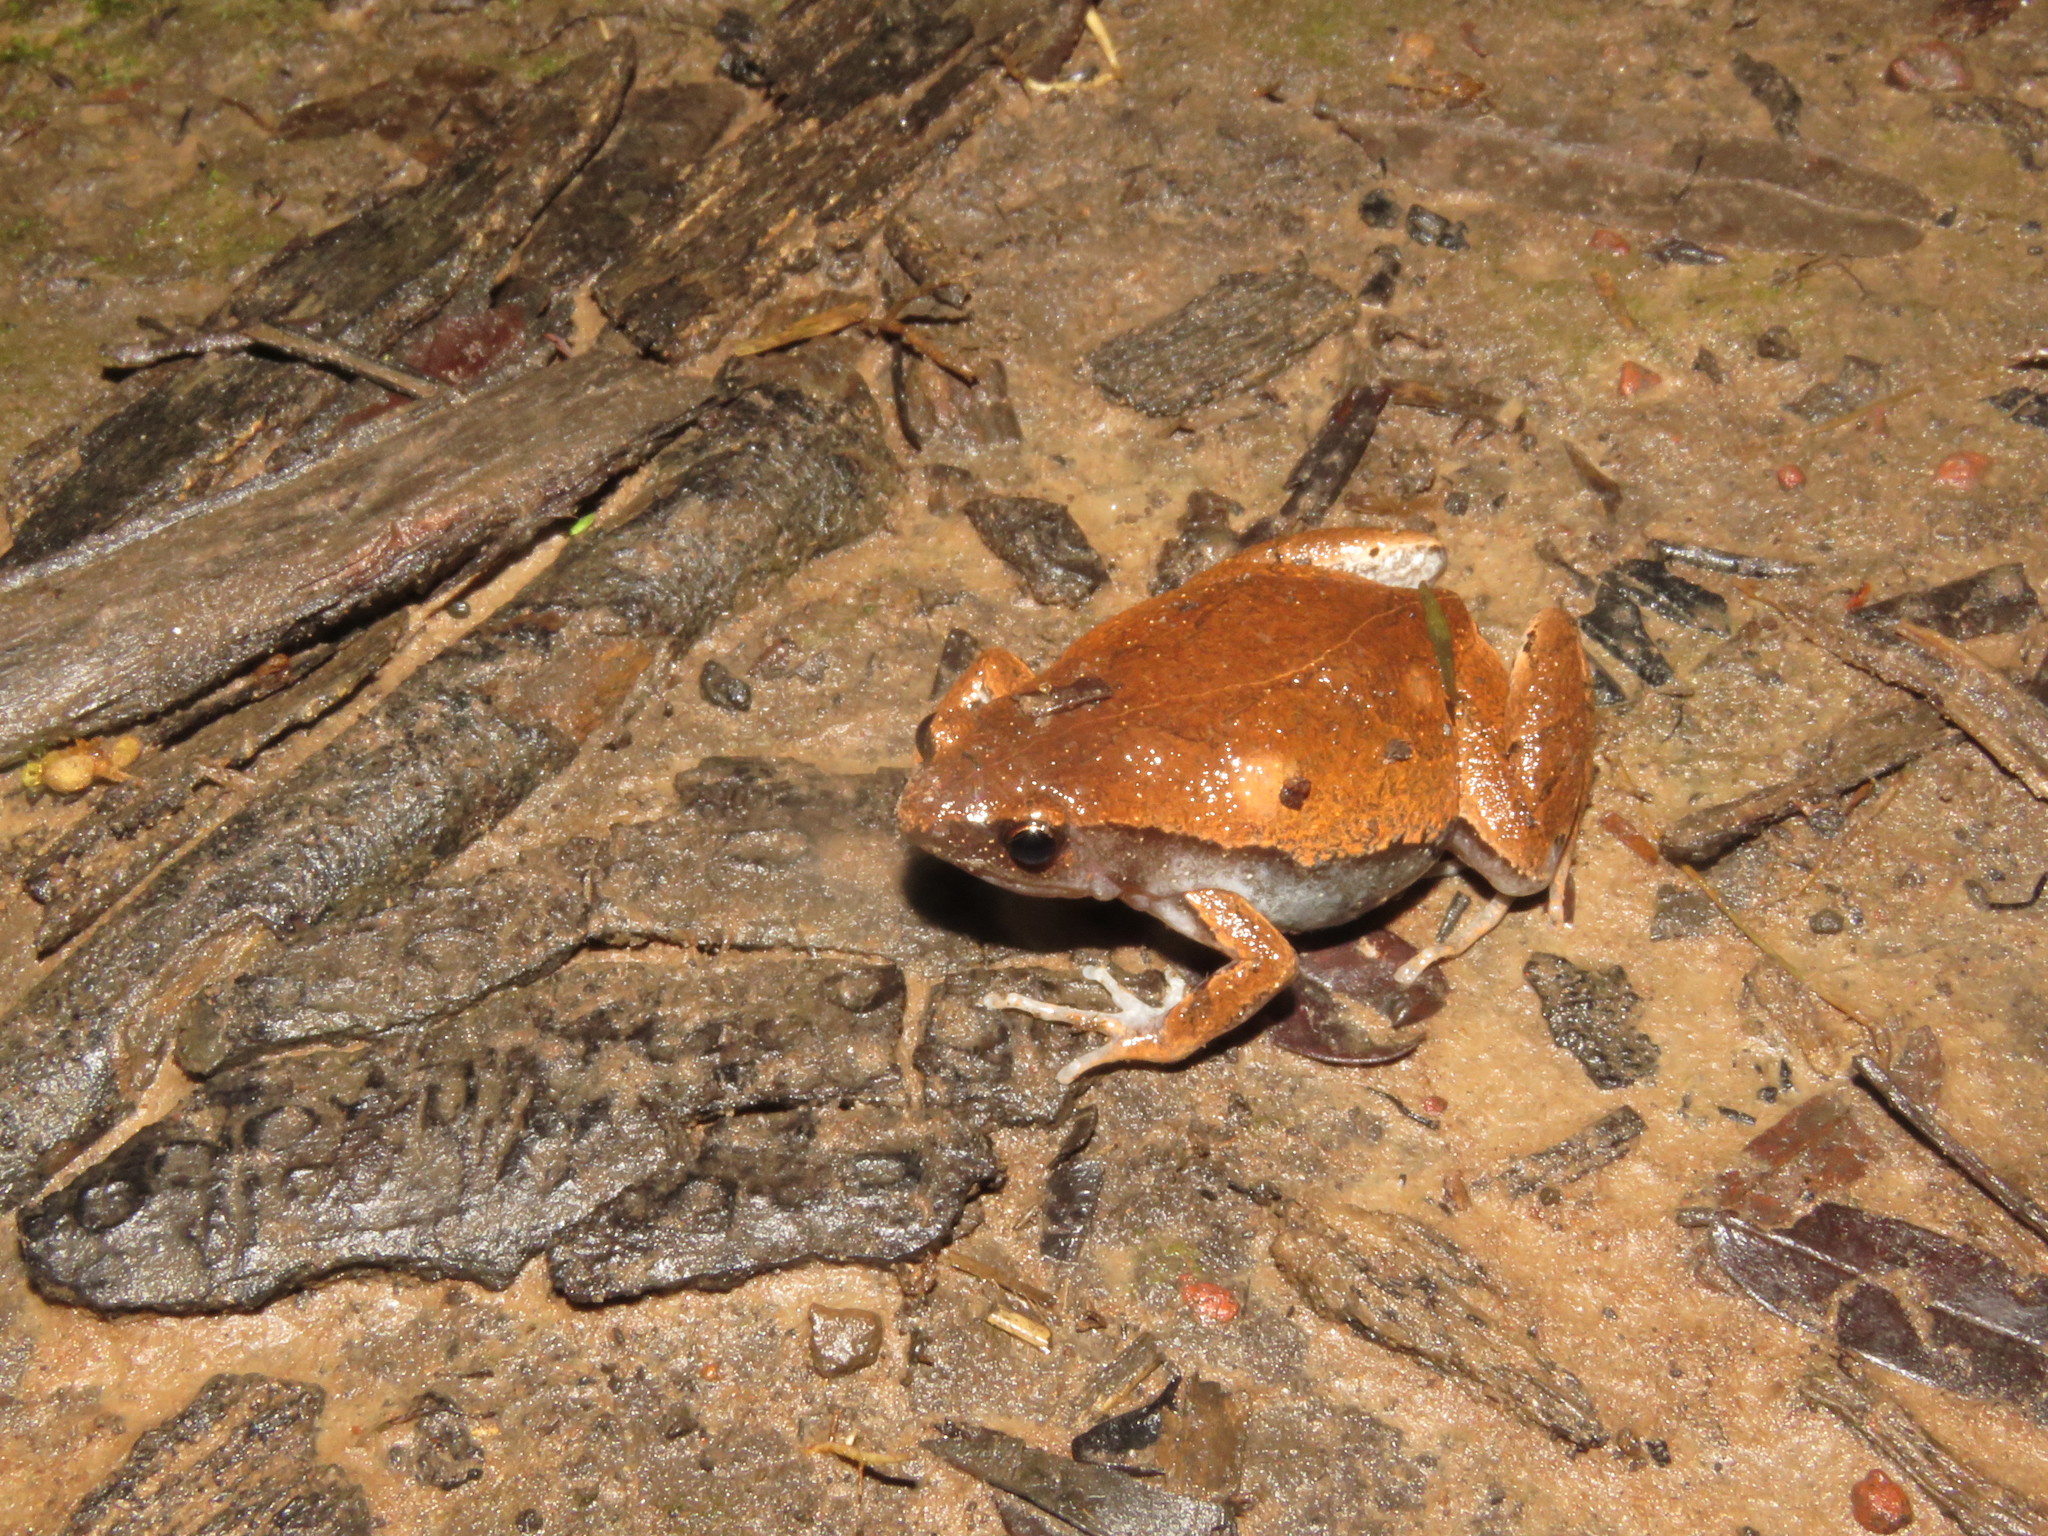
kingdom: Animalia
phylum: Chordata
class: Amphibia
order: Anura
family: Microhylidae
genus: Hamptophryne
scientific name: Hamptophryne boliviana
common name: Bolivian bleating frog
